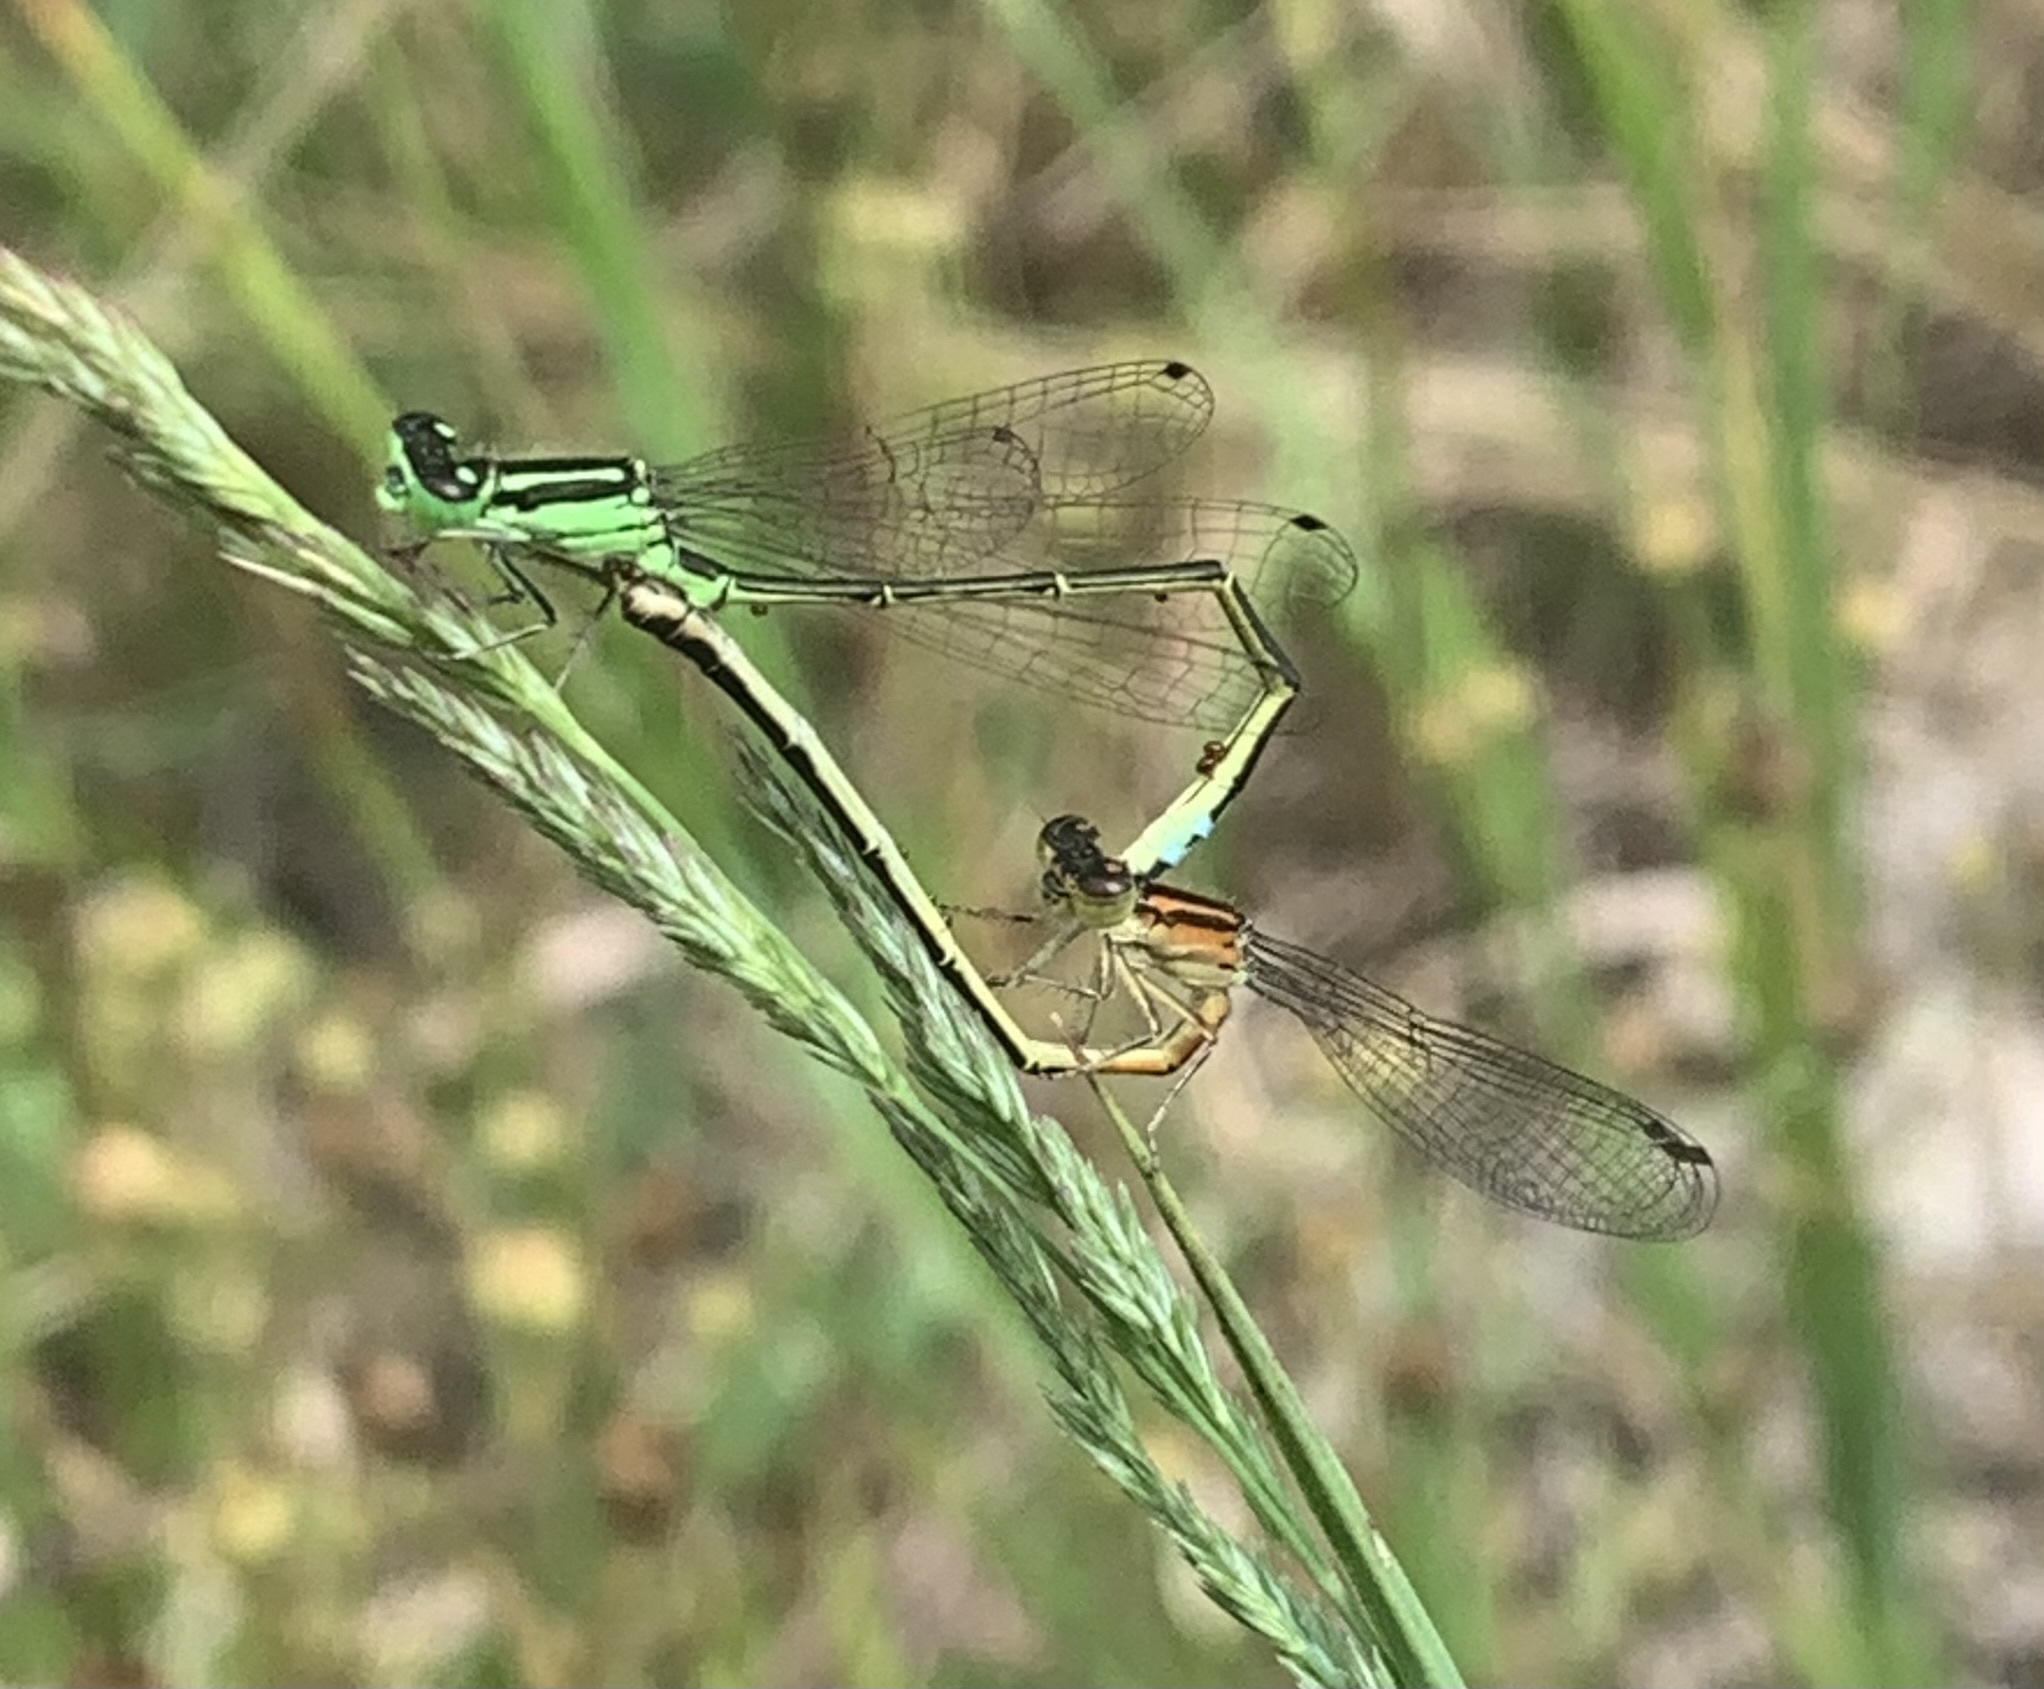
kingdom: Animalia
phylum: Arthropoda
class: Insecta
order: Odonata
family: Coenagrionidae
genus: Ischnura
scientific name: Ischnura verticalis
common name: Eastern forktail
